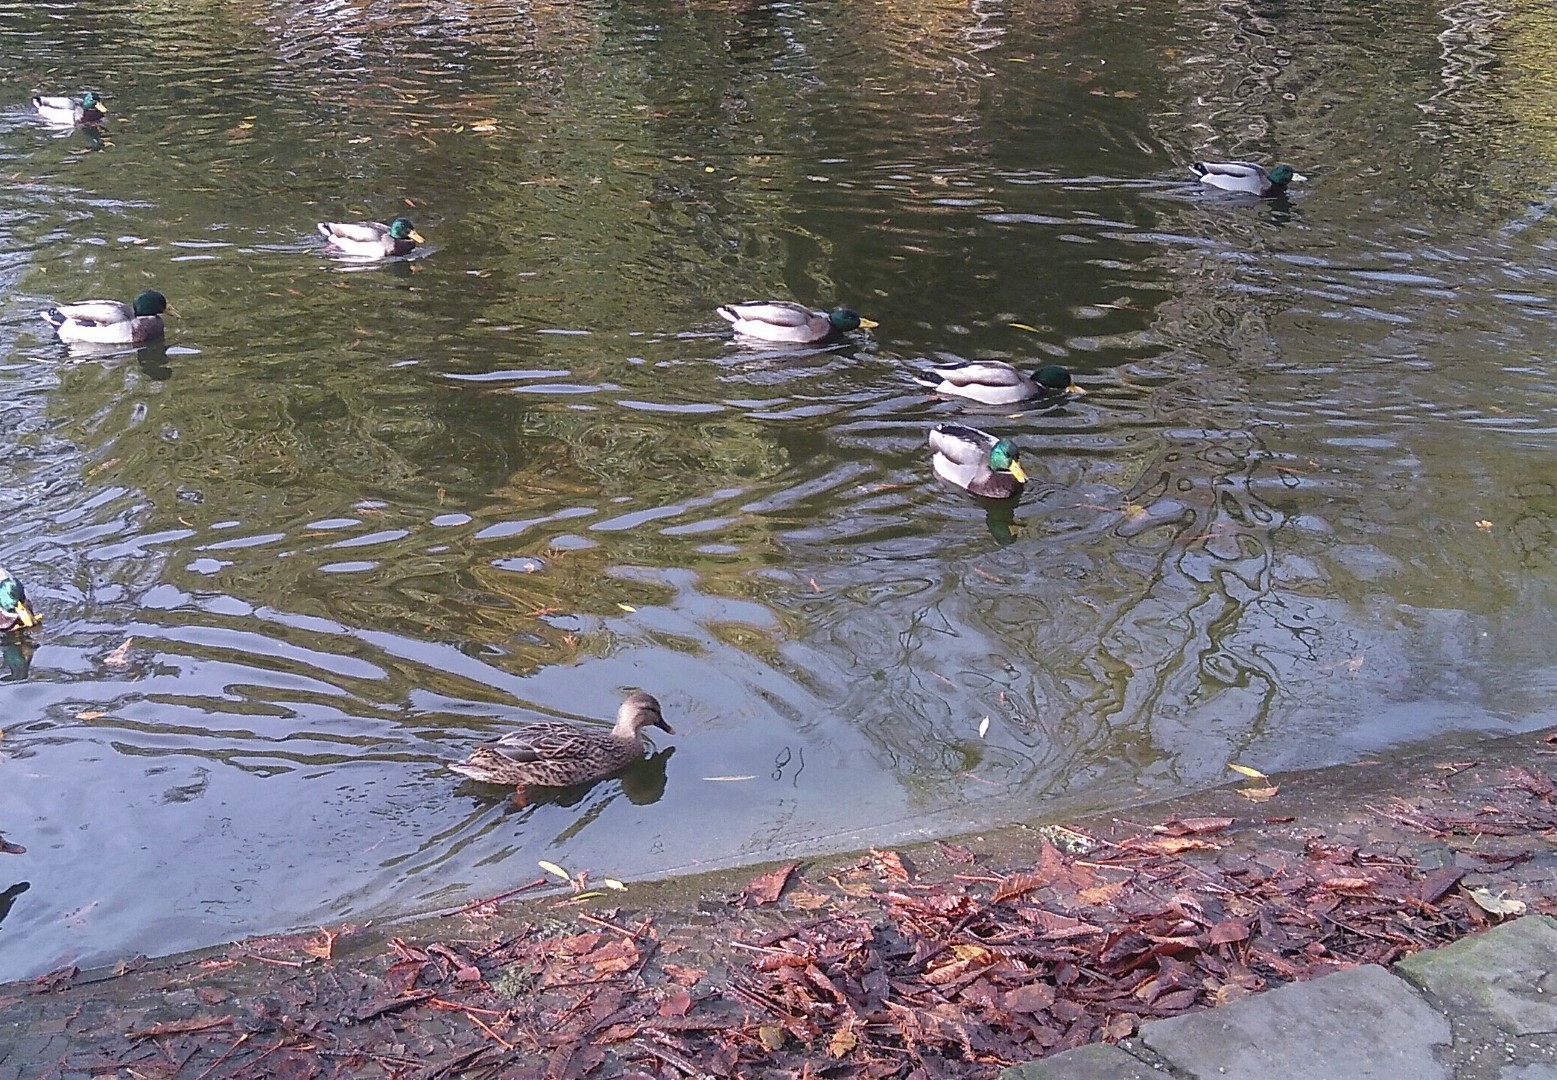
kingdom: Animalia
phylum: Chordata
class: Aves
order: Anseriformes
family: Anatidae
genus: Anas
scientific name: Anas platyrhynchos
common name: Mallard
